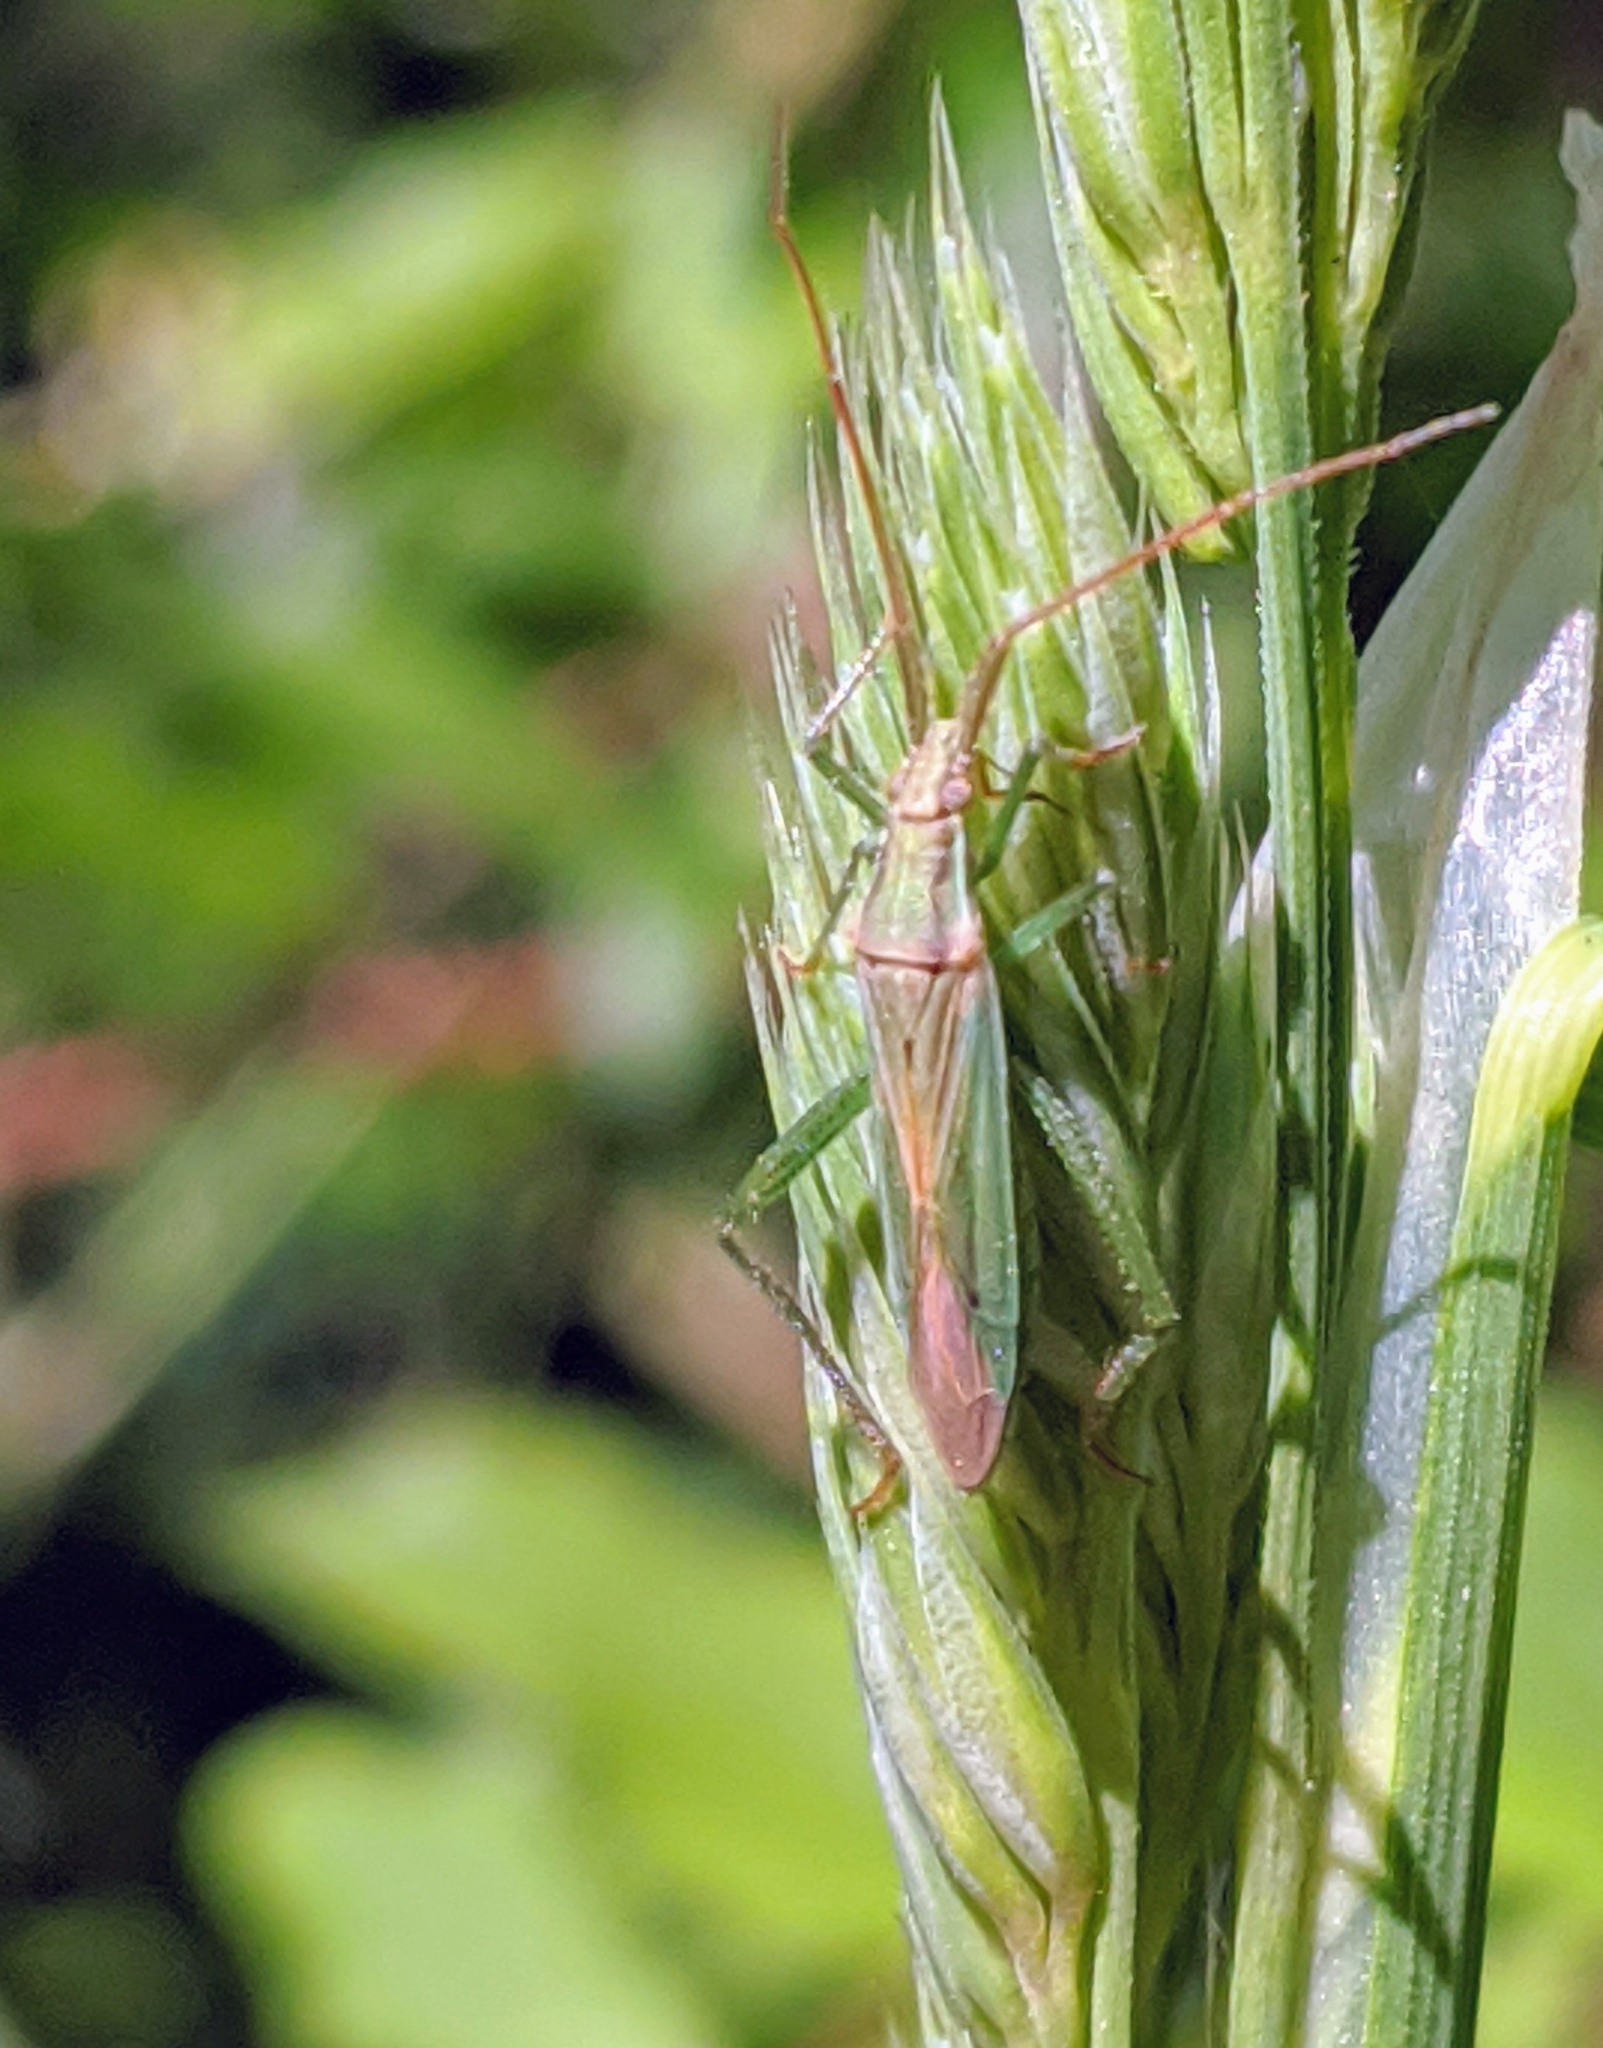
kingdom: Animalia
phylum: Arthropoda
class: Insecta
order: Hemiptera
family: Miridae
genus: Stenodema
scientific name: Stenodema laevigata
